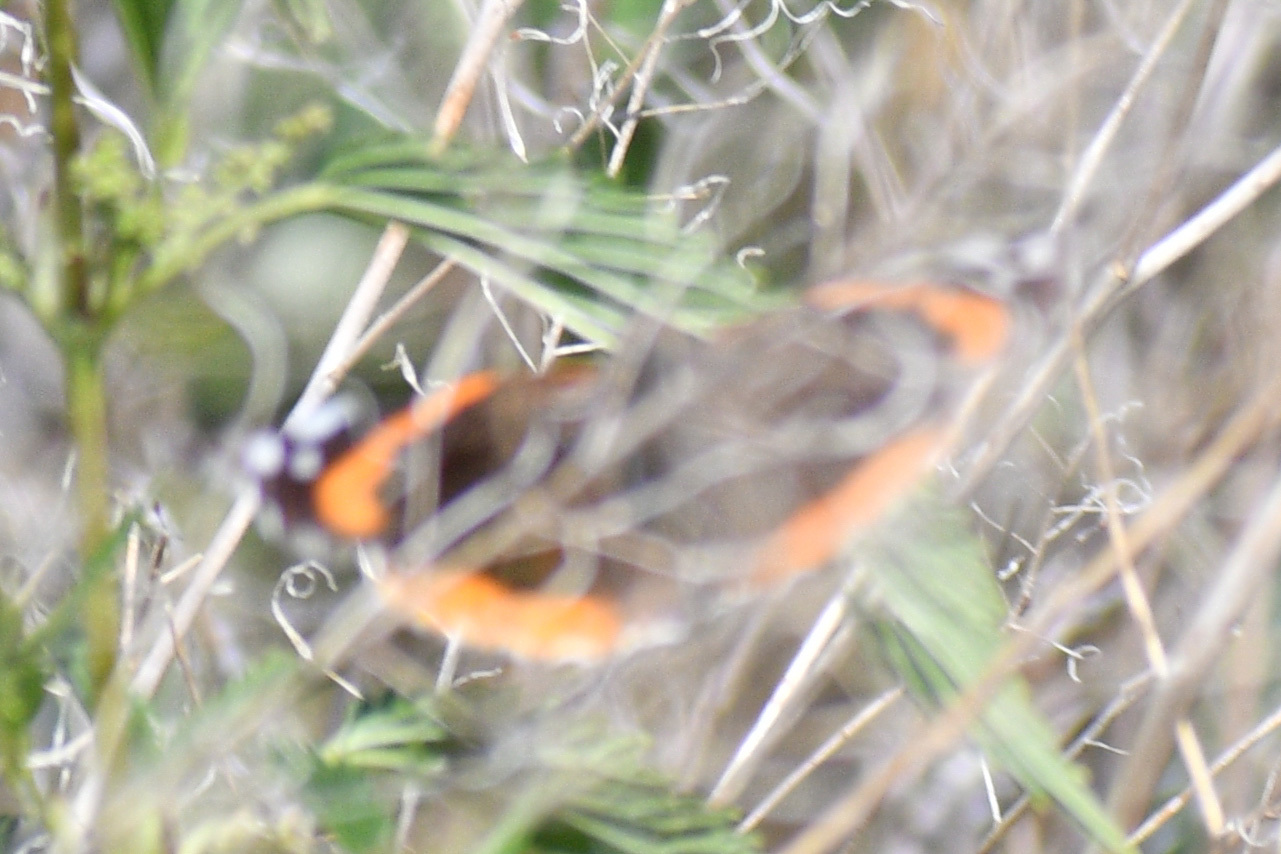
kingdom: Animalia
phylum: Arthropoda
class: Insecta
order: Lepidoptera
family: Nymphalidae
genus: Vanessa
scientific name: Vanessa atalanta
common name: Red admiral
